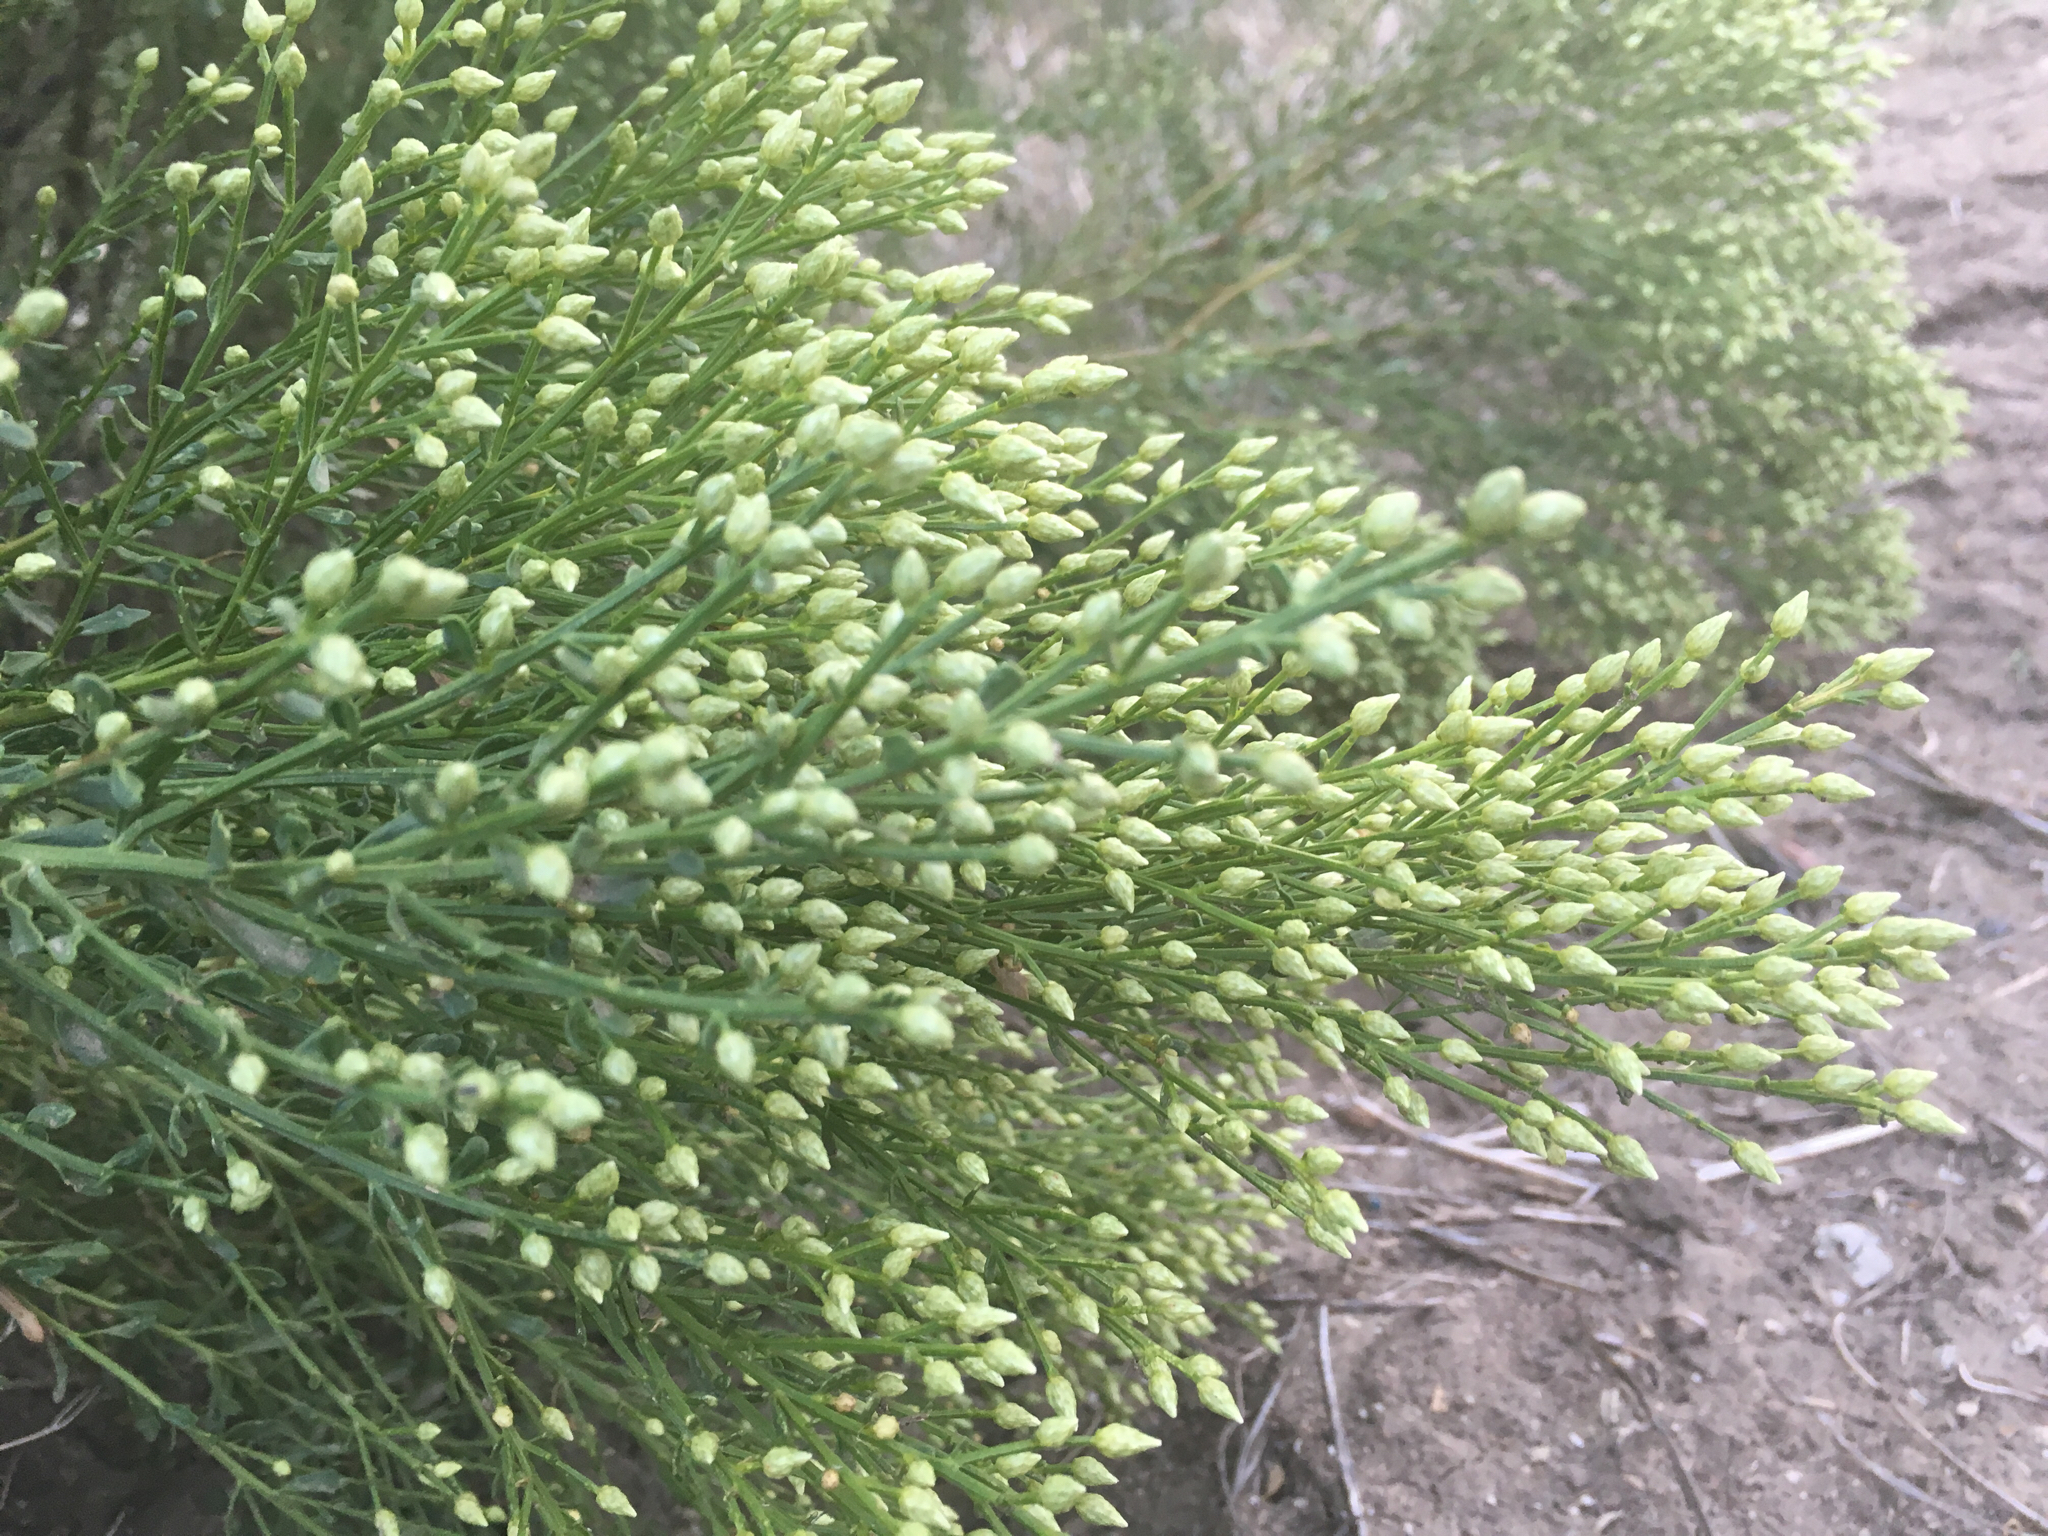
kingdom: Plantae
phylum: Tracheophyta
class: Magnoliopsida
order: Asterales
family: Asteraceae
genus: Baccharis
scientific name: Baccharis pilularis
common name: Coyotebrush
